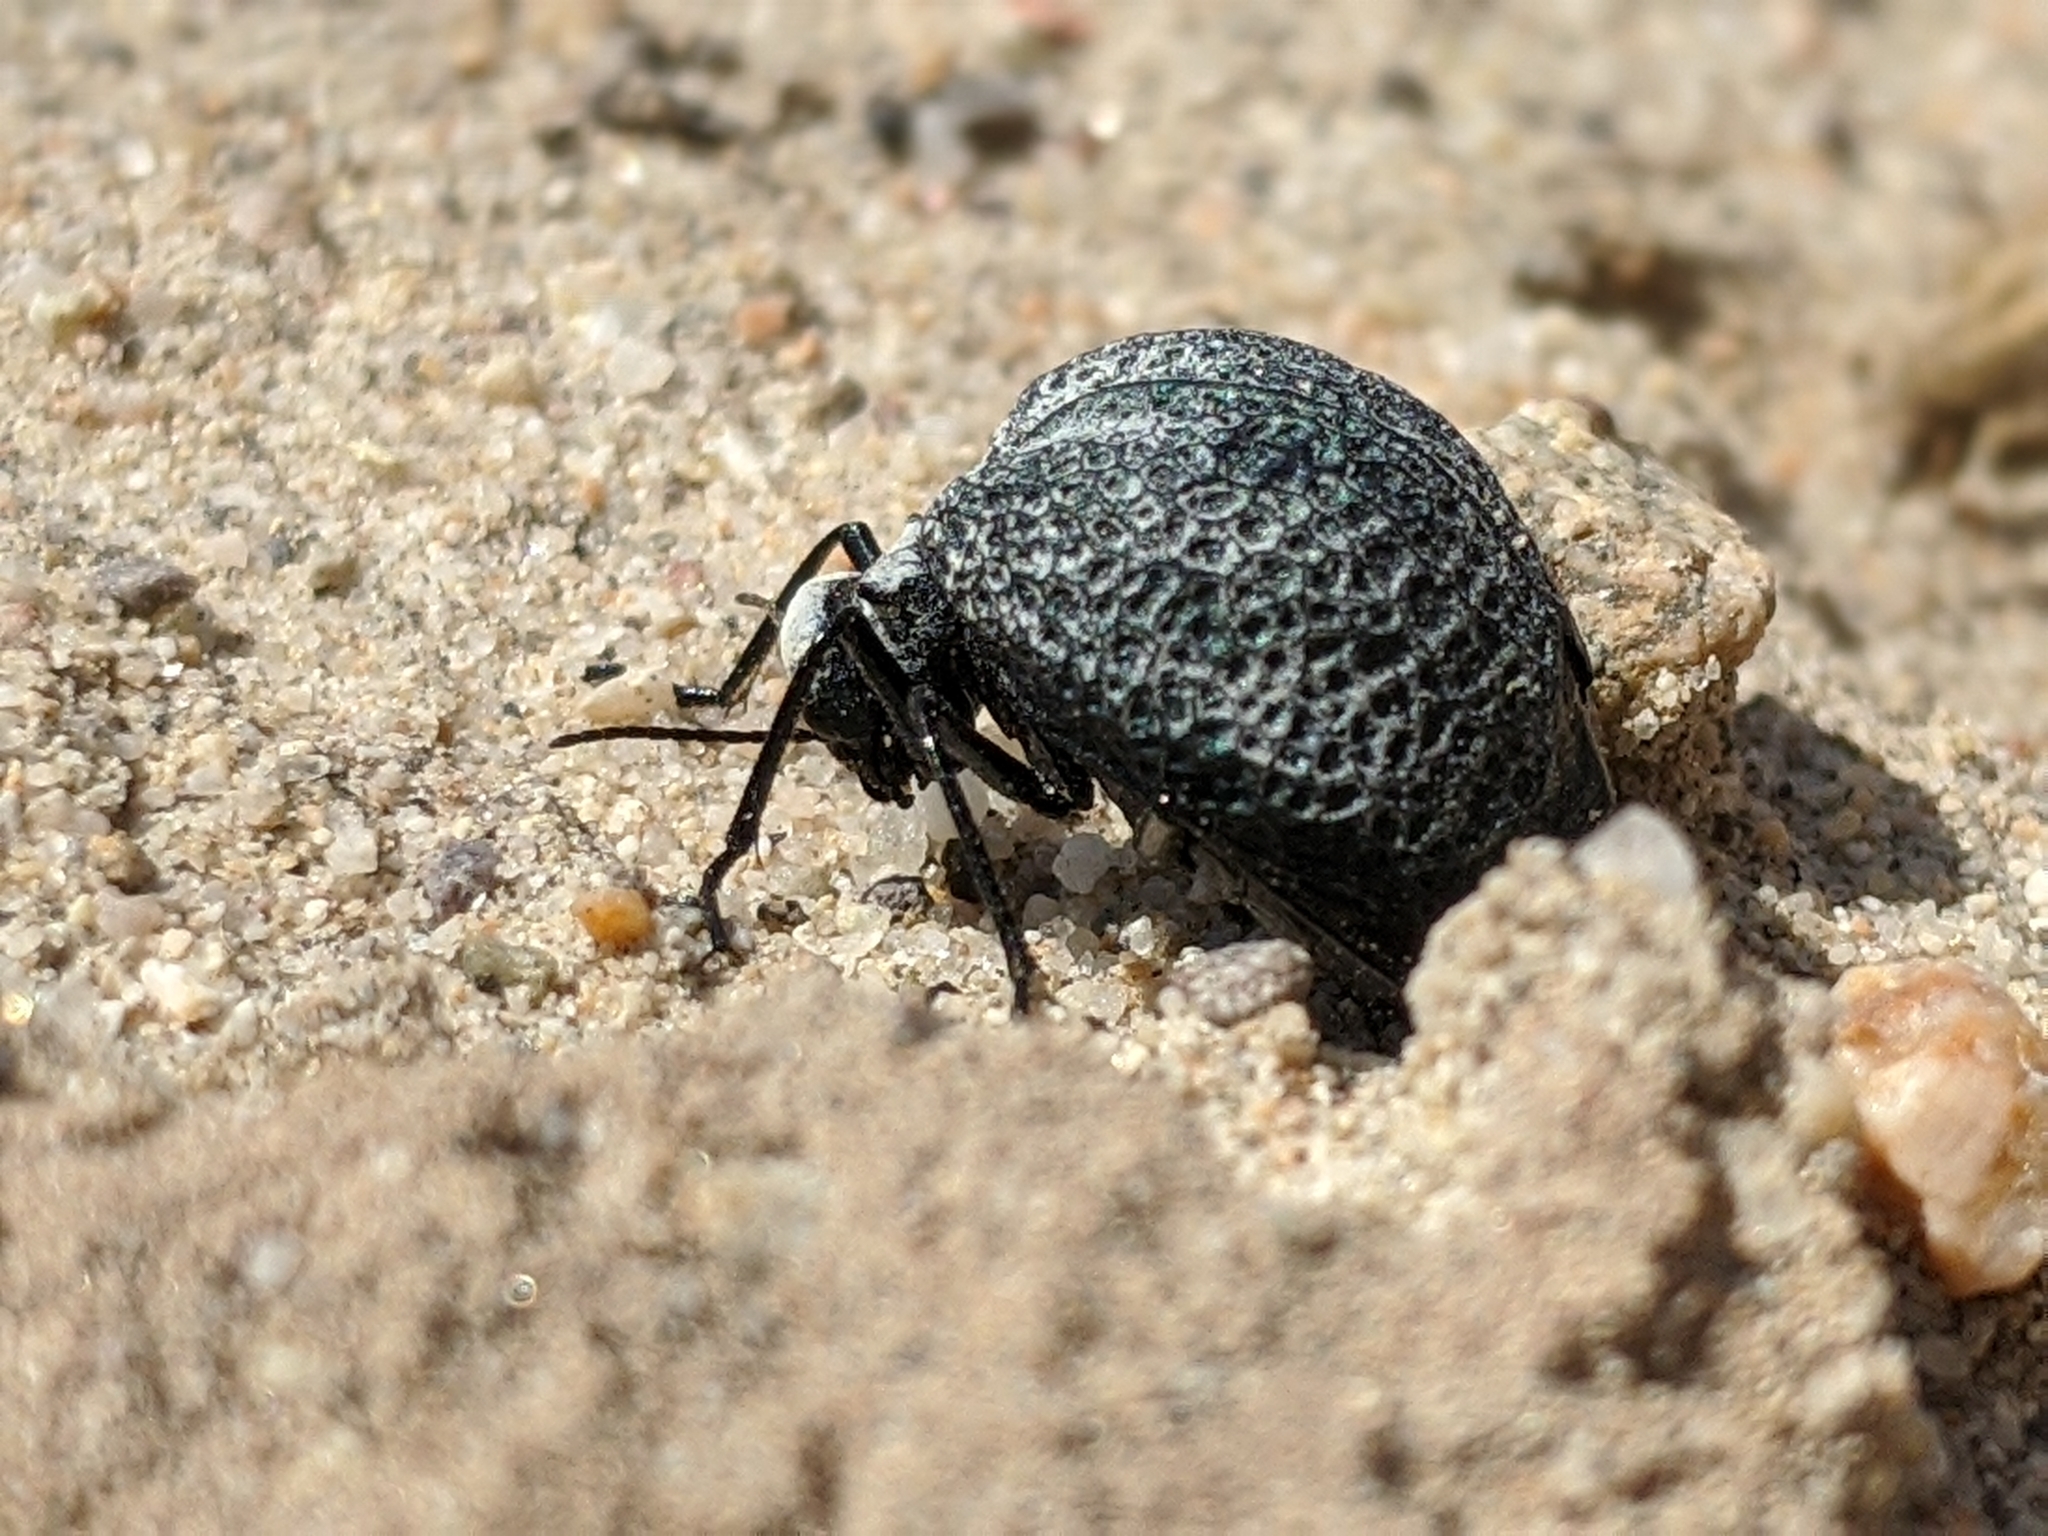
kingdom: Animalia
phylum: Arthropoda
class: Insecta
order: Coleoptera
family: Meloidae
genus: Cysteodemus
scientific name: Cysteodemus armatus
